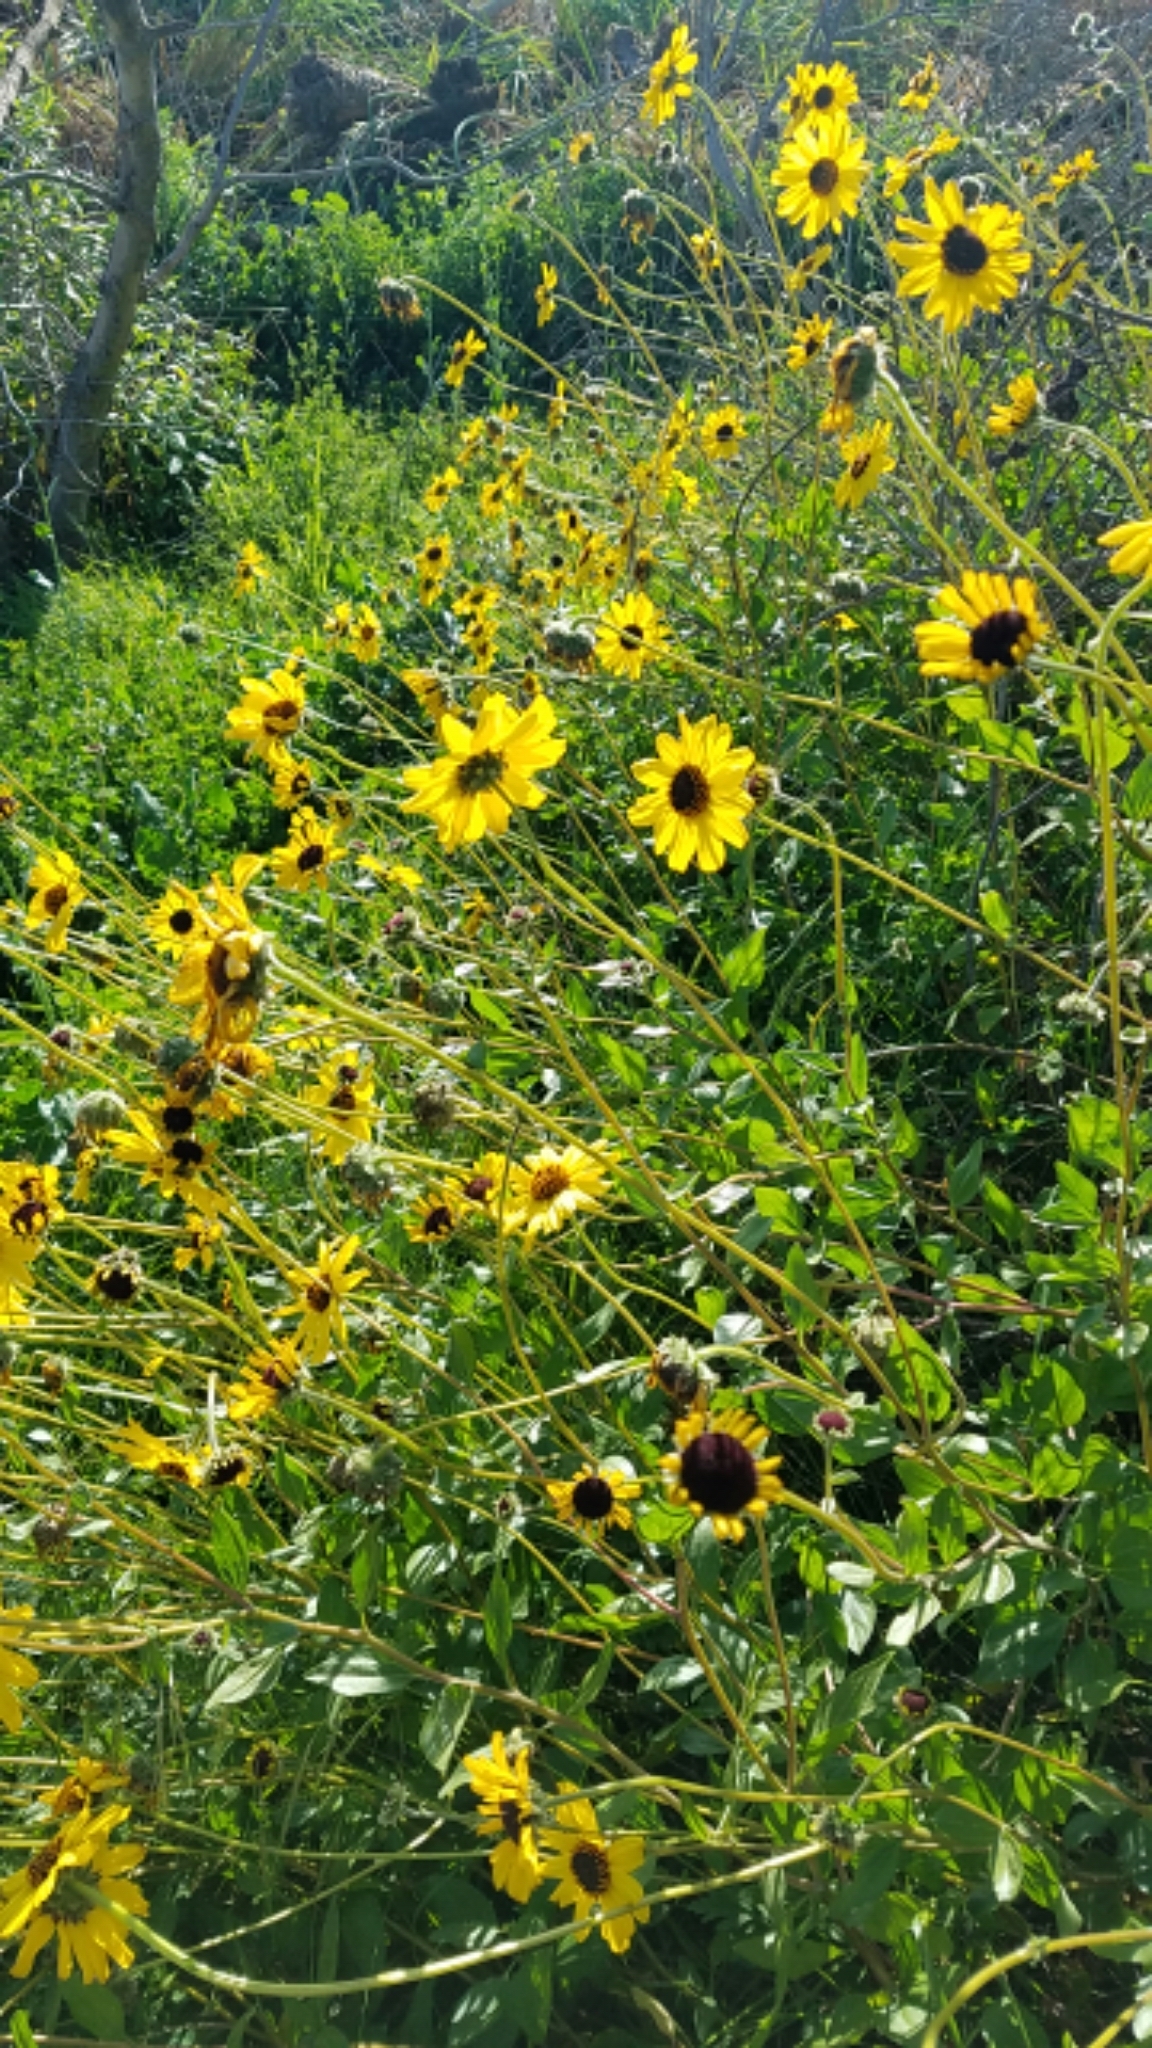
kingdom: Plantae
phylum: Tracheophyta
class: Magnoliopsida
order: Asterales
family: Asteraceae
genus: Encelia
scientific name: Encelia californica
